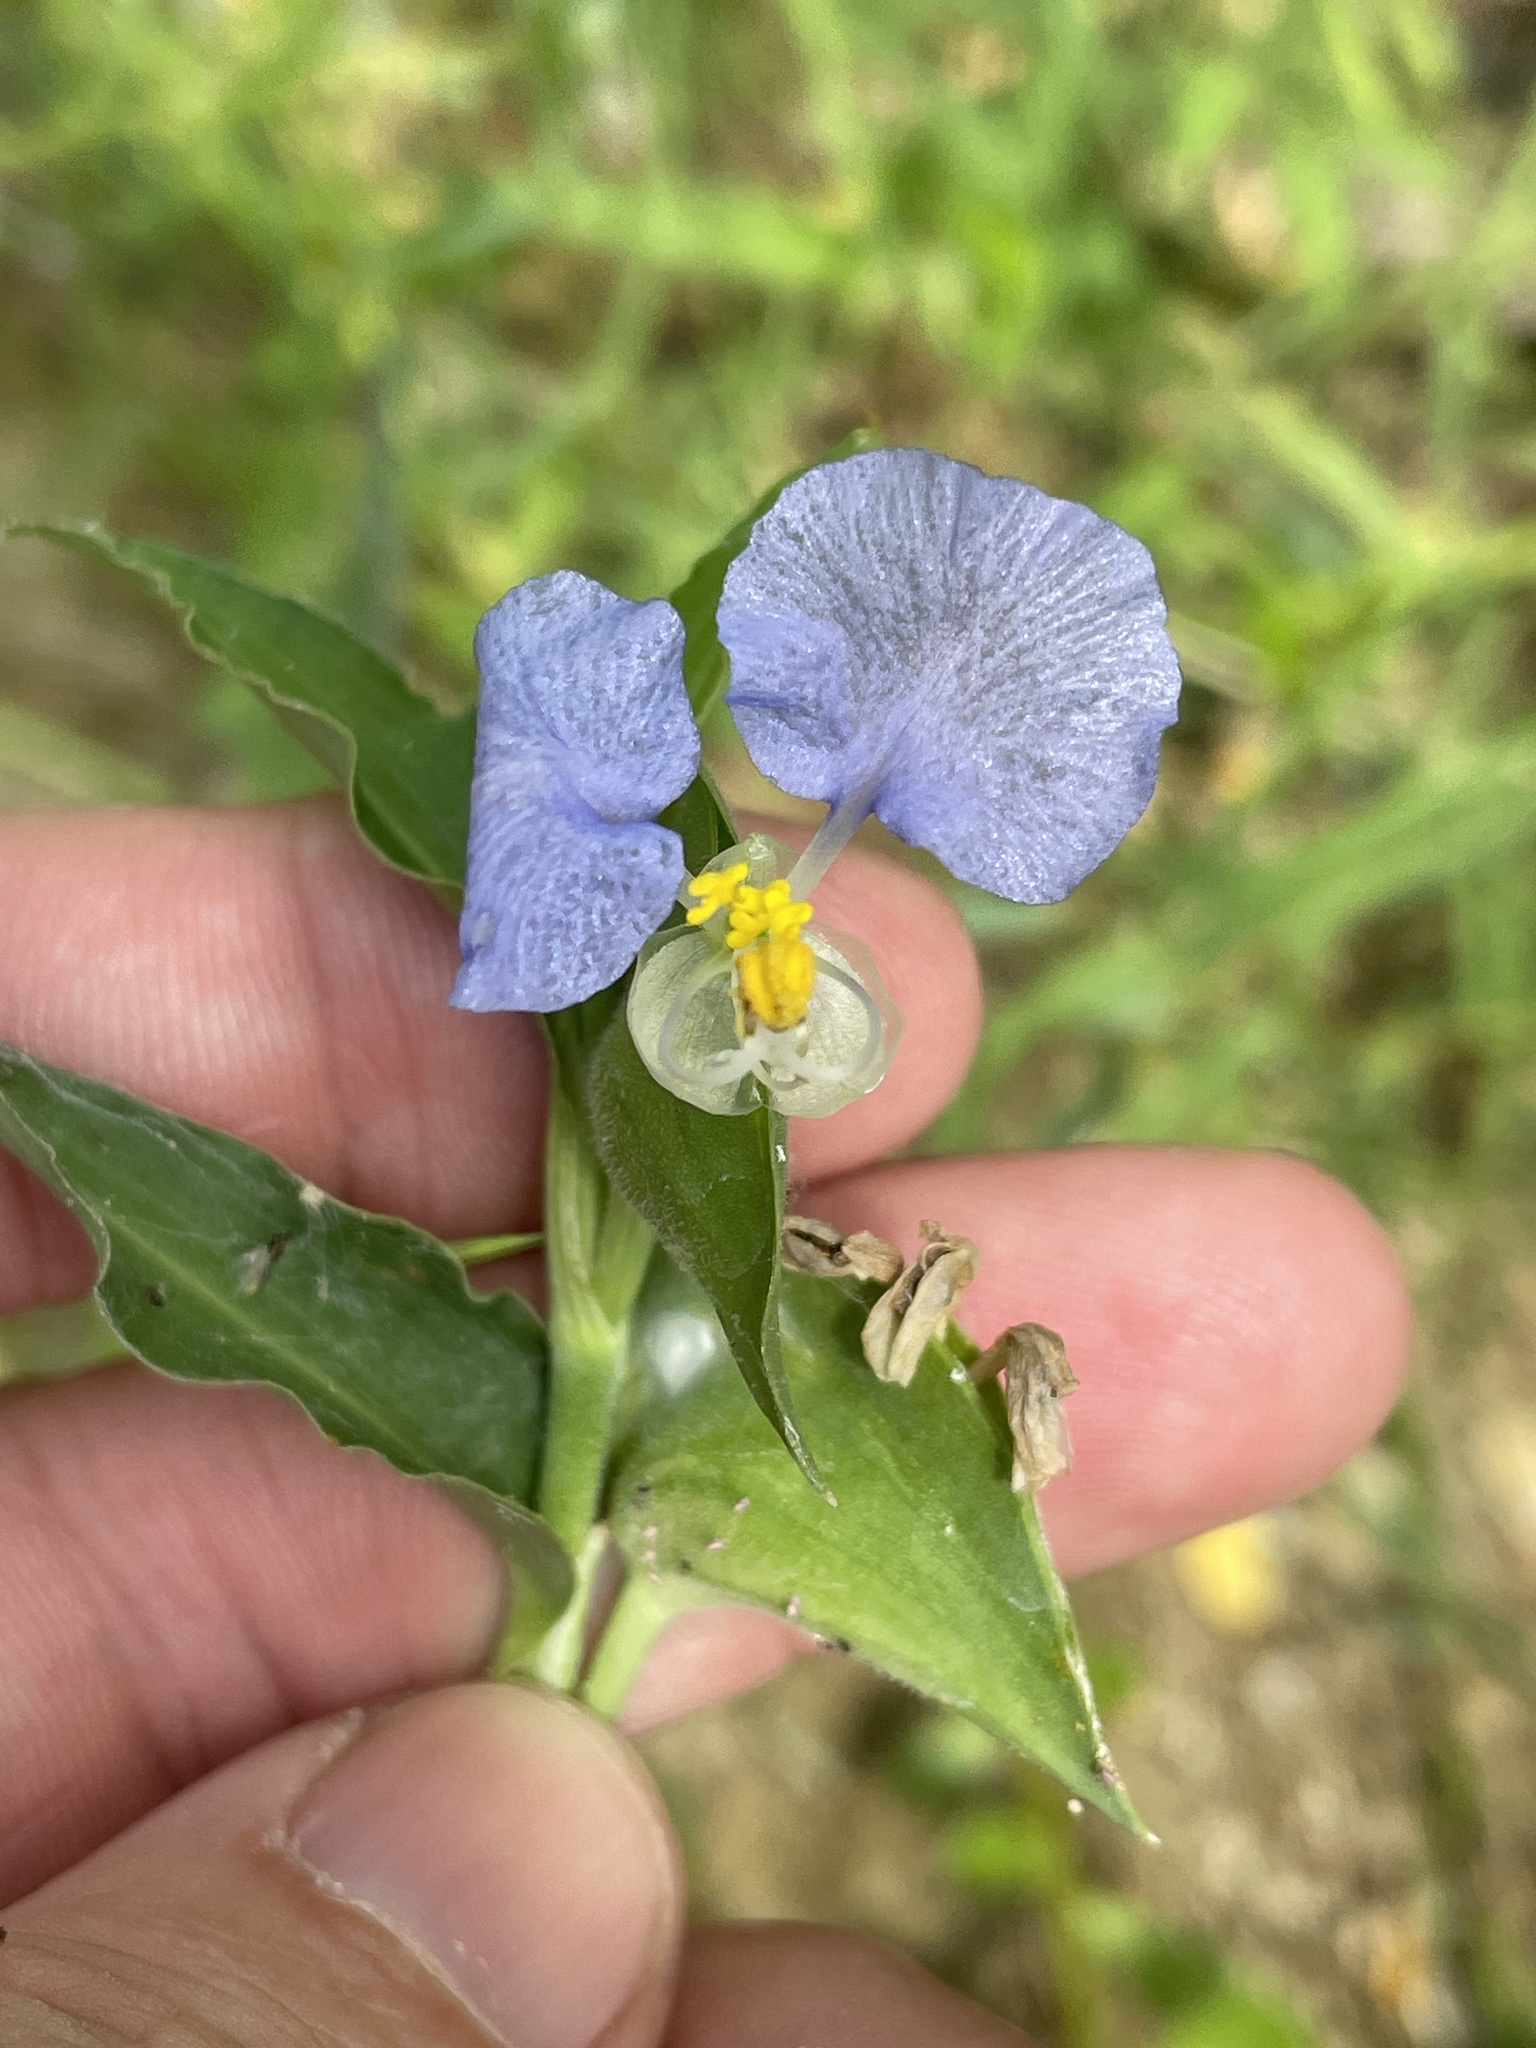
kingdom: Plantae
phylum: Tracheophyta
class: Liliopsida
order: Commelinales
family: Commelinaceae
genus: Commelina
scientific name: Commelina erecta
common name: Blousel blommetjie
